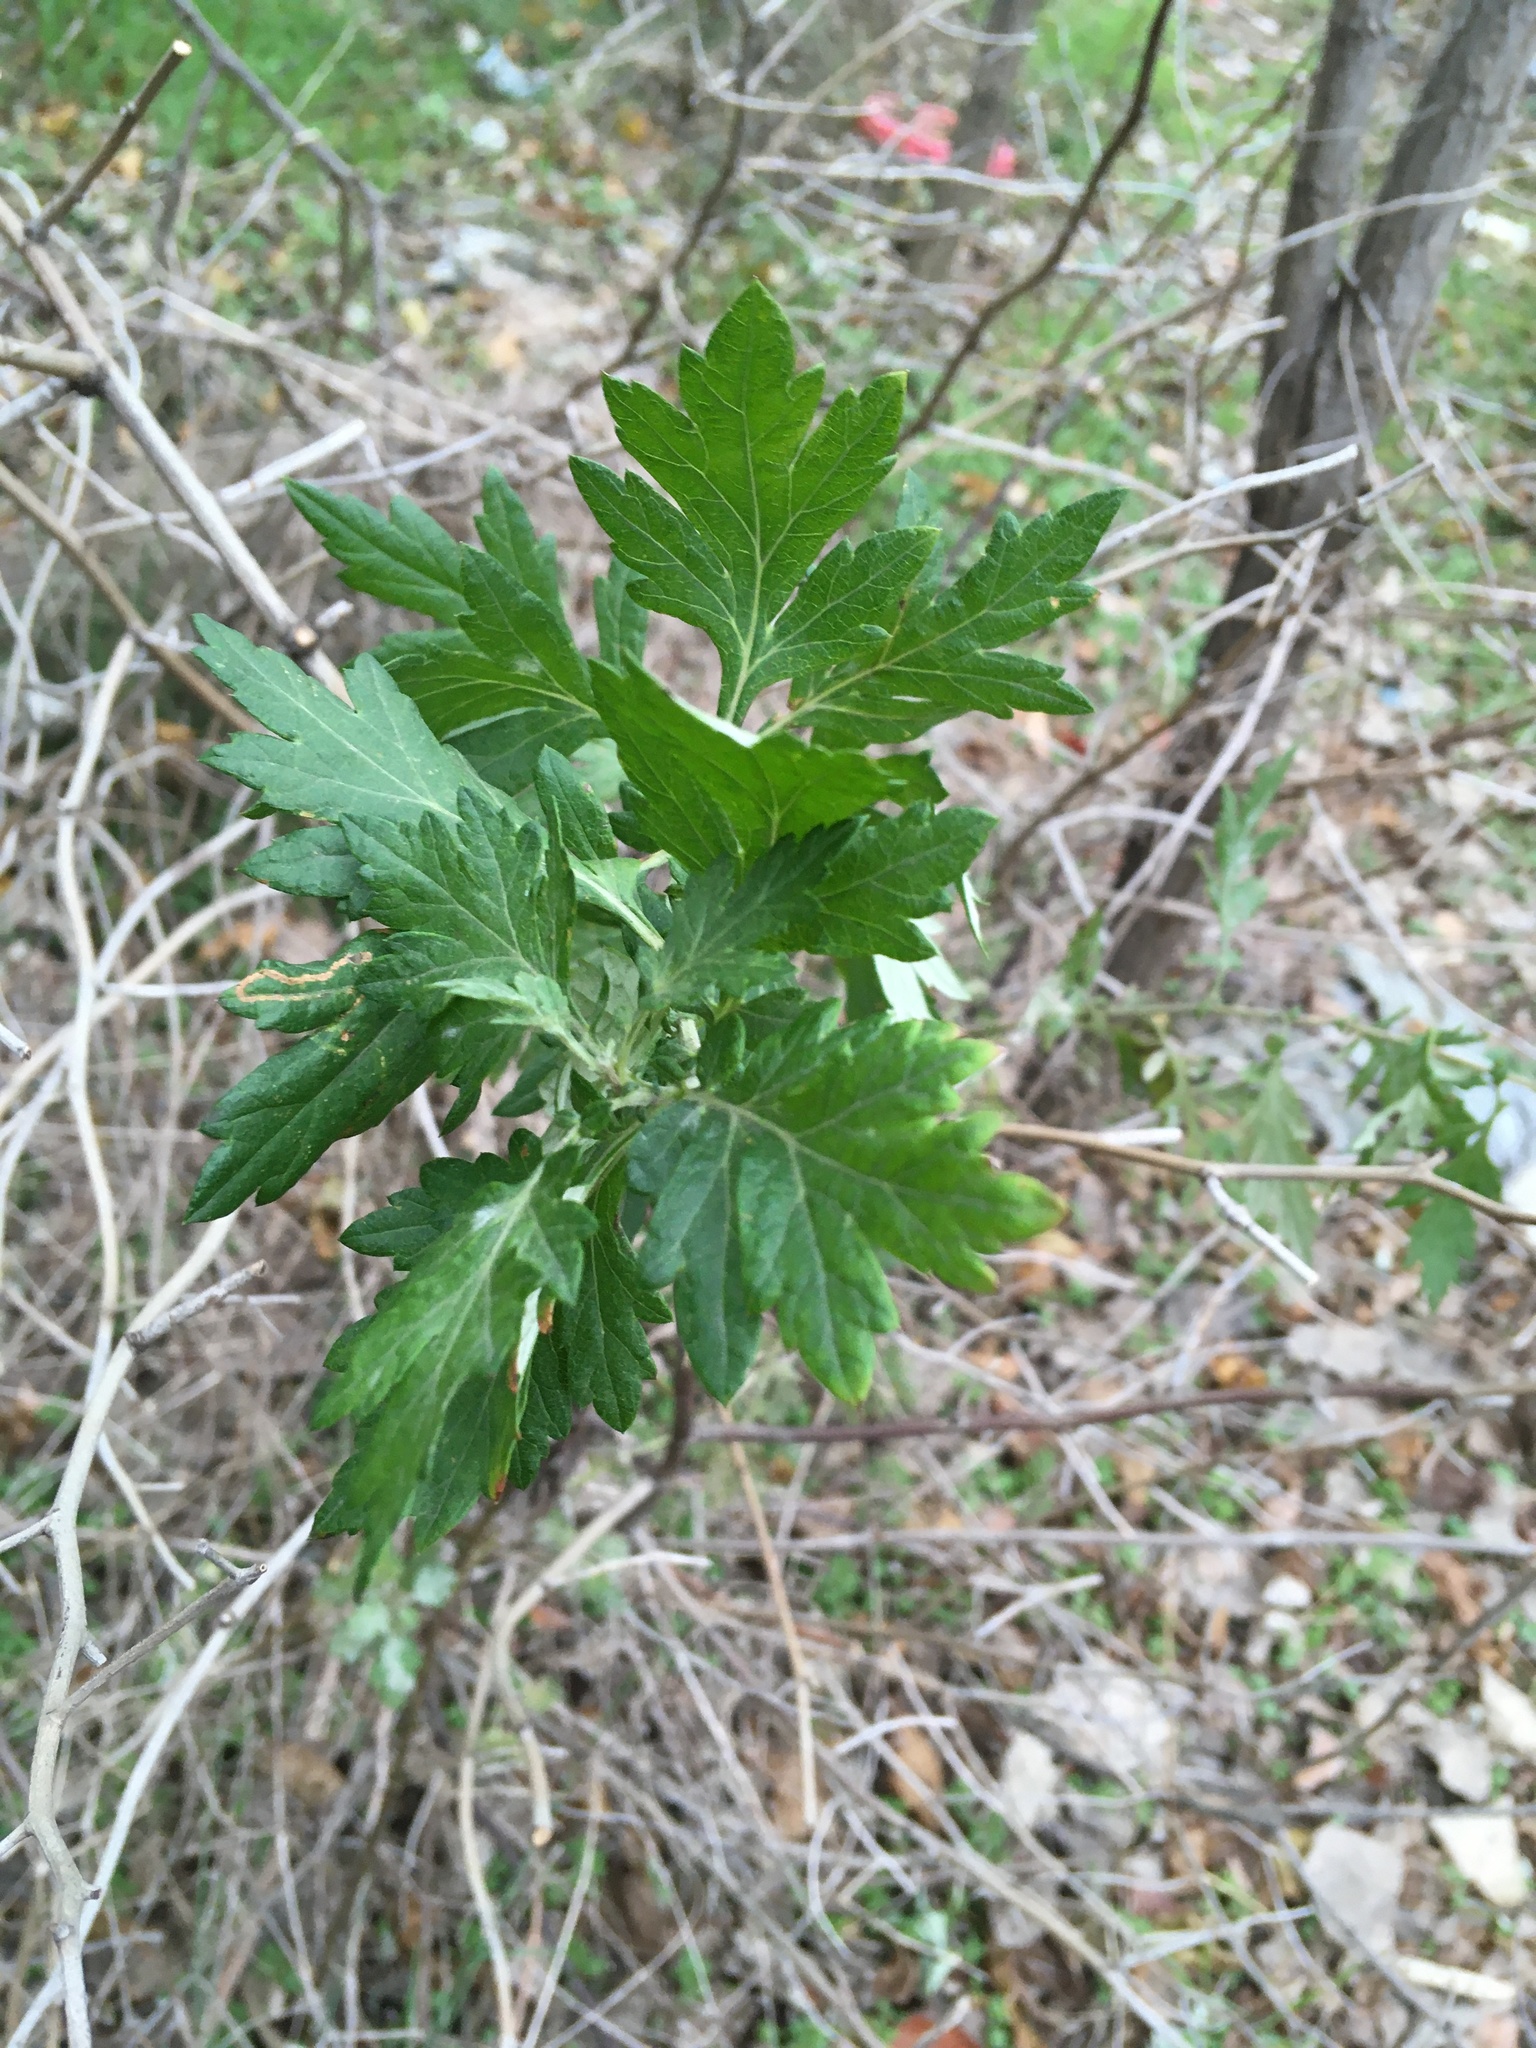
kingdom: Plantae
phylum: Tracheophyta
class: Magnoliopsida
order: Asterales
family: Asteraceae
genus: Artemisia
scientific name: Artemisia vulgaris
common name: Mugwort
